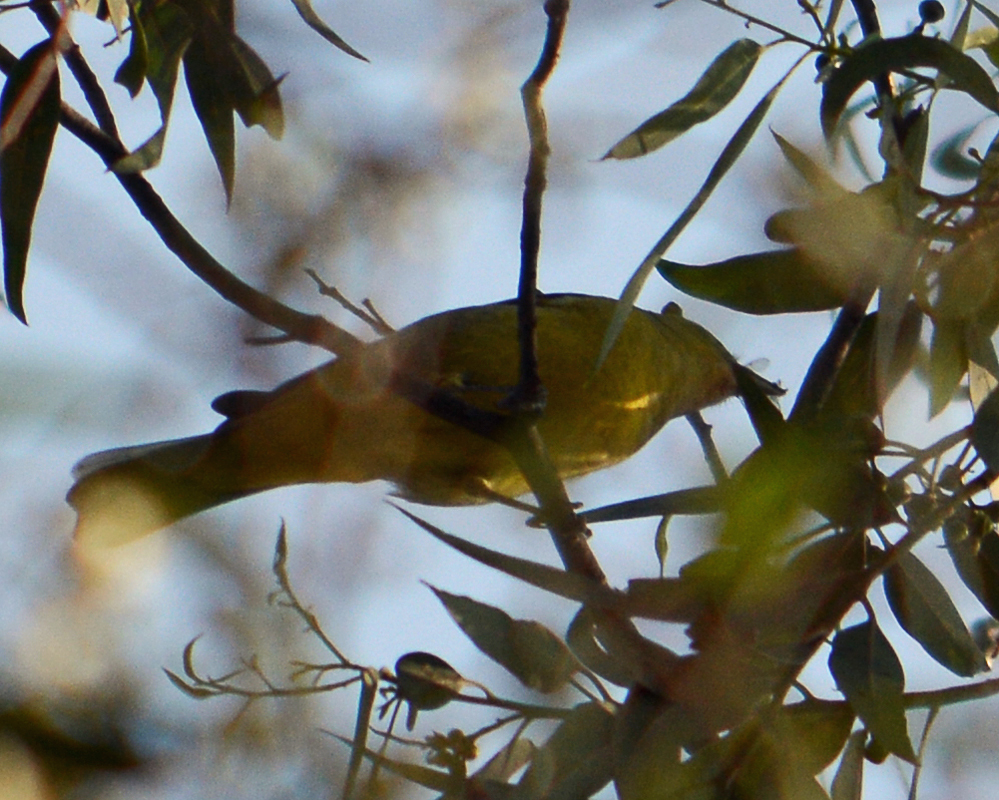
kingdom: Animalia
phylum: Chordata
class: Aves
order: Passeriformes
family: Cardinalidae
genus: Piranga
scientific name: Piranga ludoviciana
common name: Western tanager
